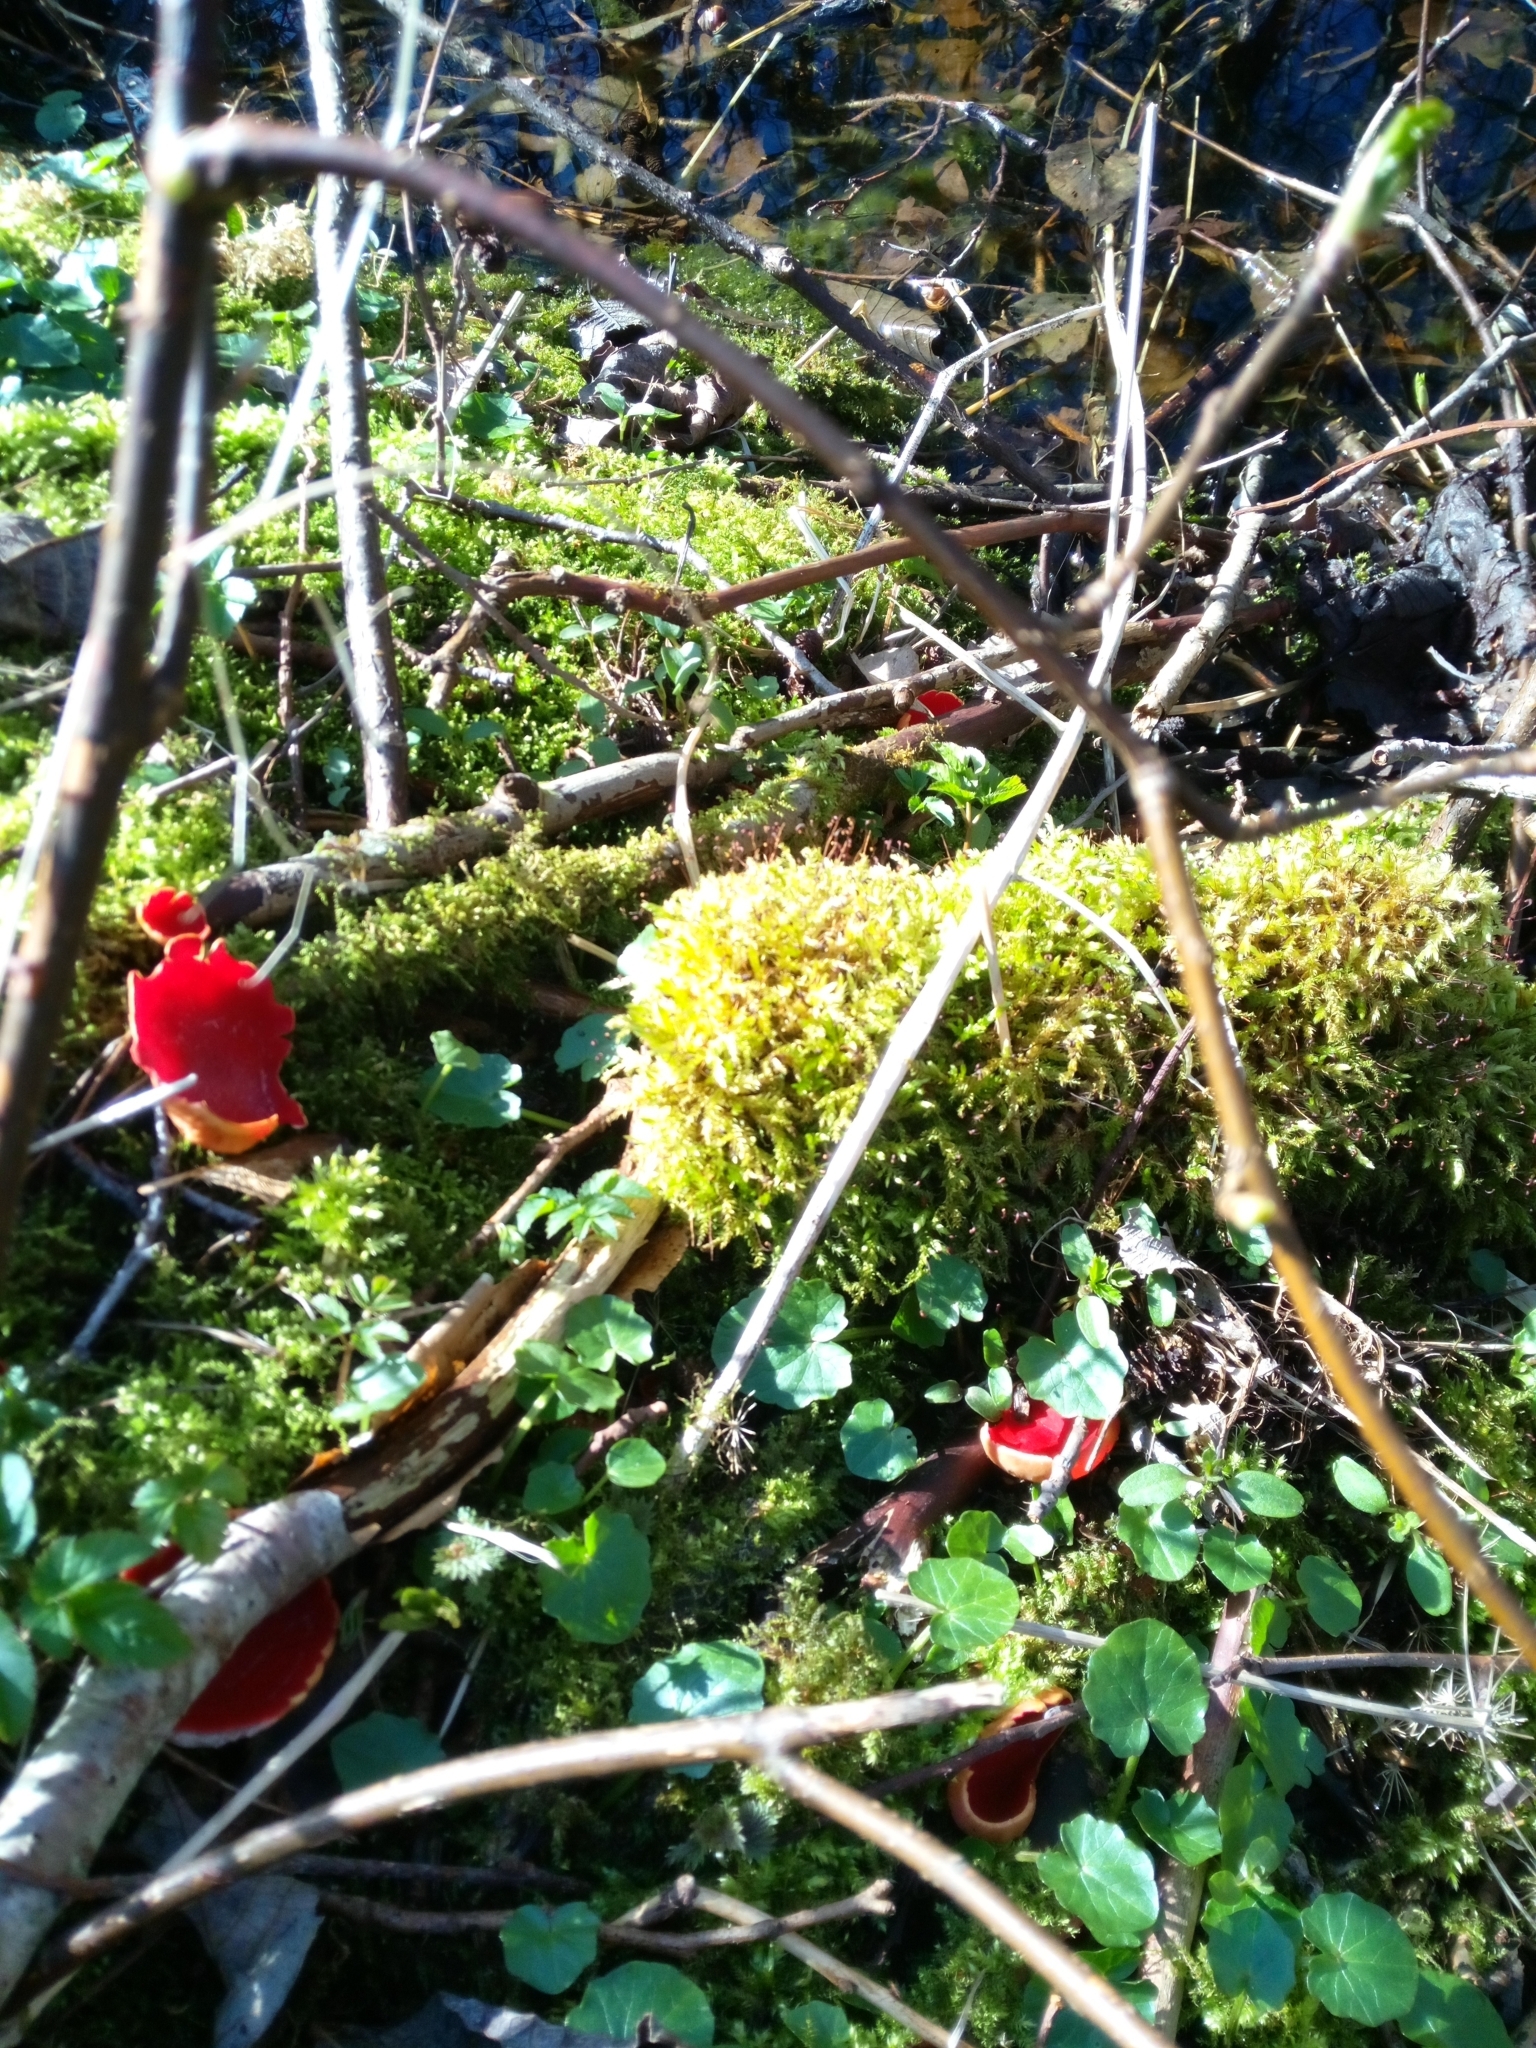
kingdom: Fungi
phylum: Ascomycota
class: Pezizomycetes
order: Pezizales
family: Sarcoscyphaceae
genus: Sarcoscypha
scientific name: Sarcoscypha
